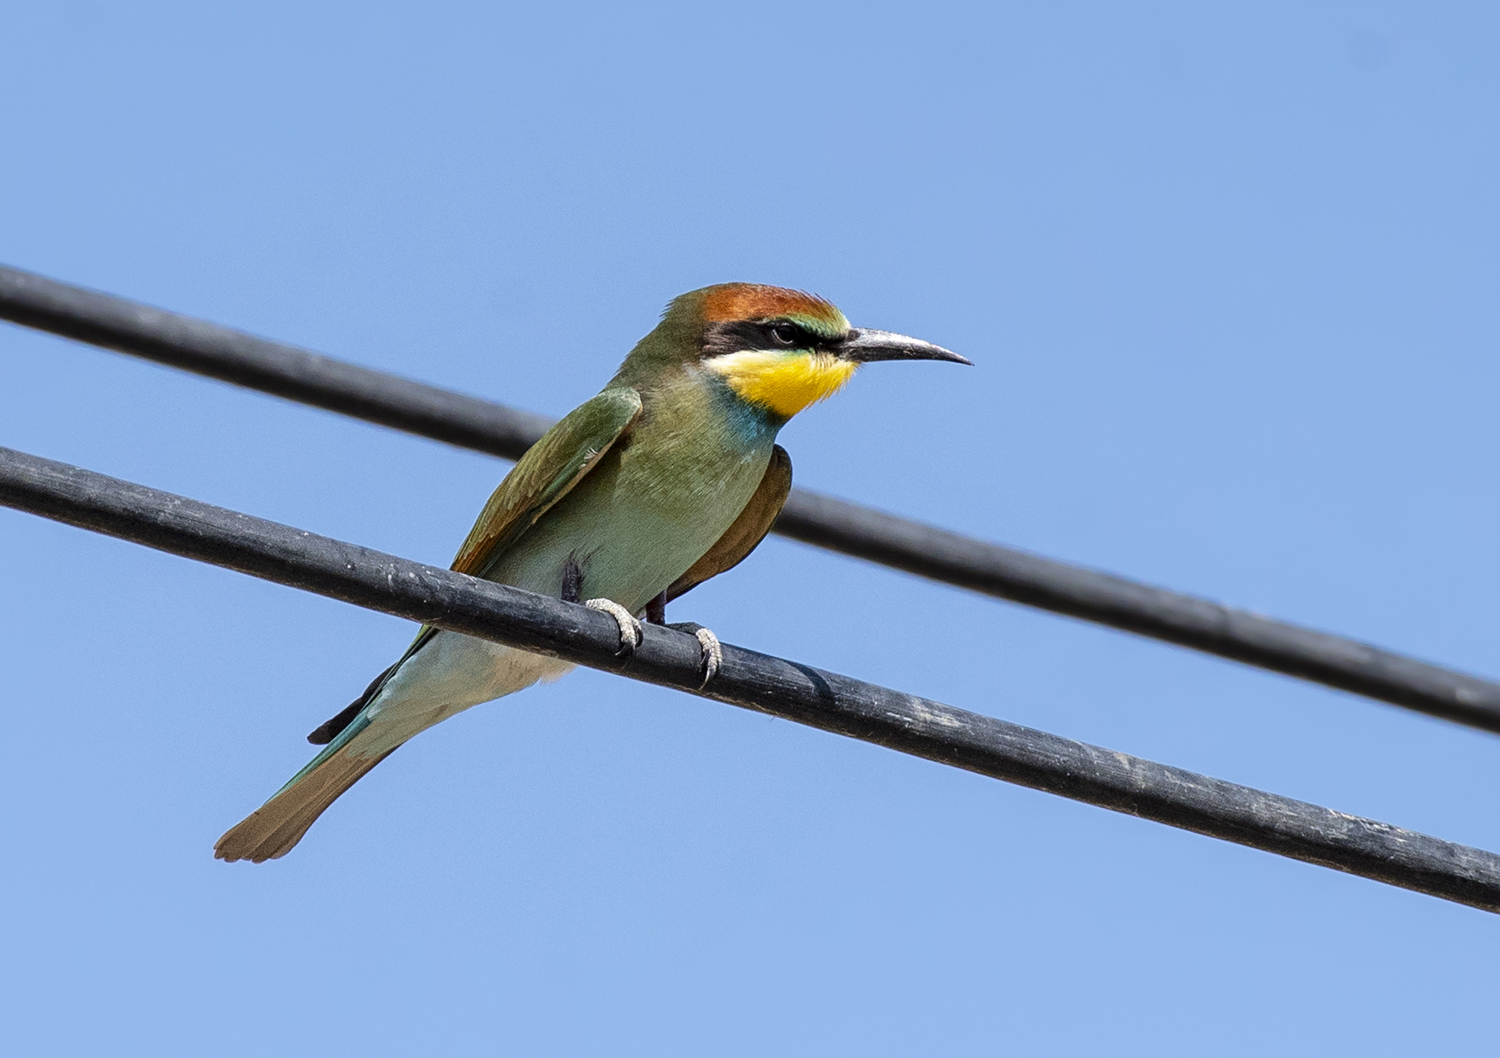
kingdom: Animalia
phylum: Chordata
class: Aves
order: Coraciiformes
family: Meropidae
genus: Merops
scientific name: Merops apiaster
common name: European bee-eater
